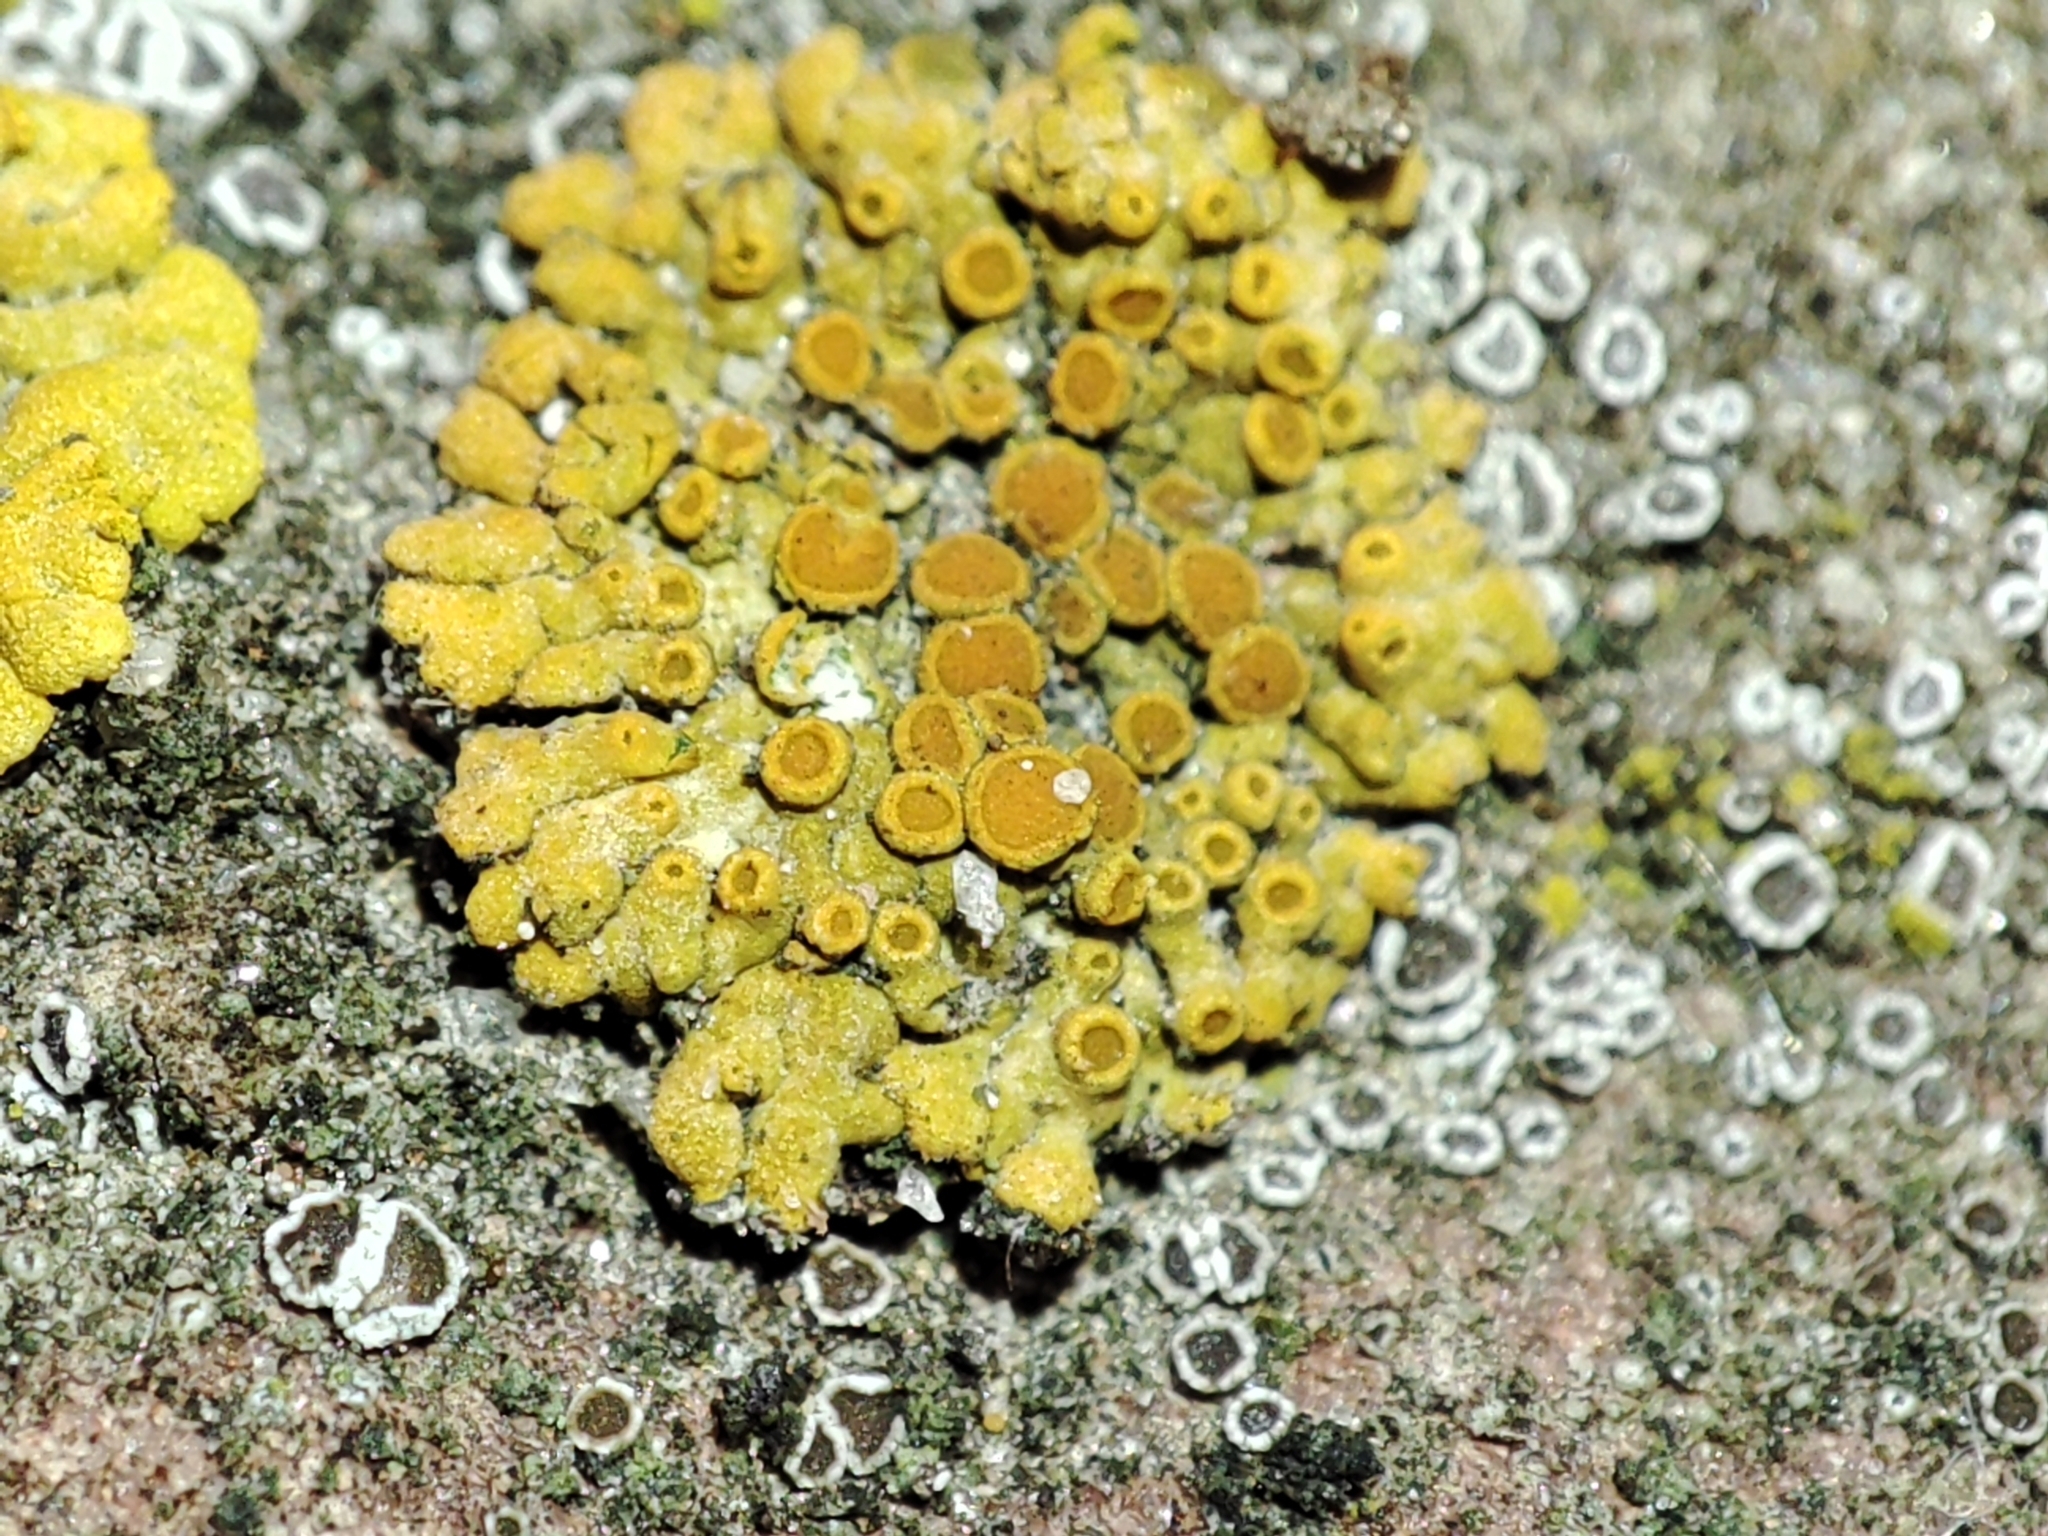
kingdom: Fungi
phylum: Ascomycota
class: Lecanoromycetes
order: Teloschistales
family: Teloschistaceae
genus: Calogaya
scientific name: Calogaya pusilla
